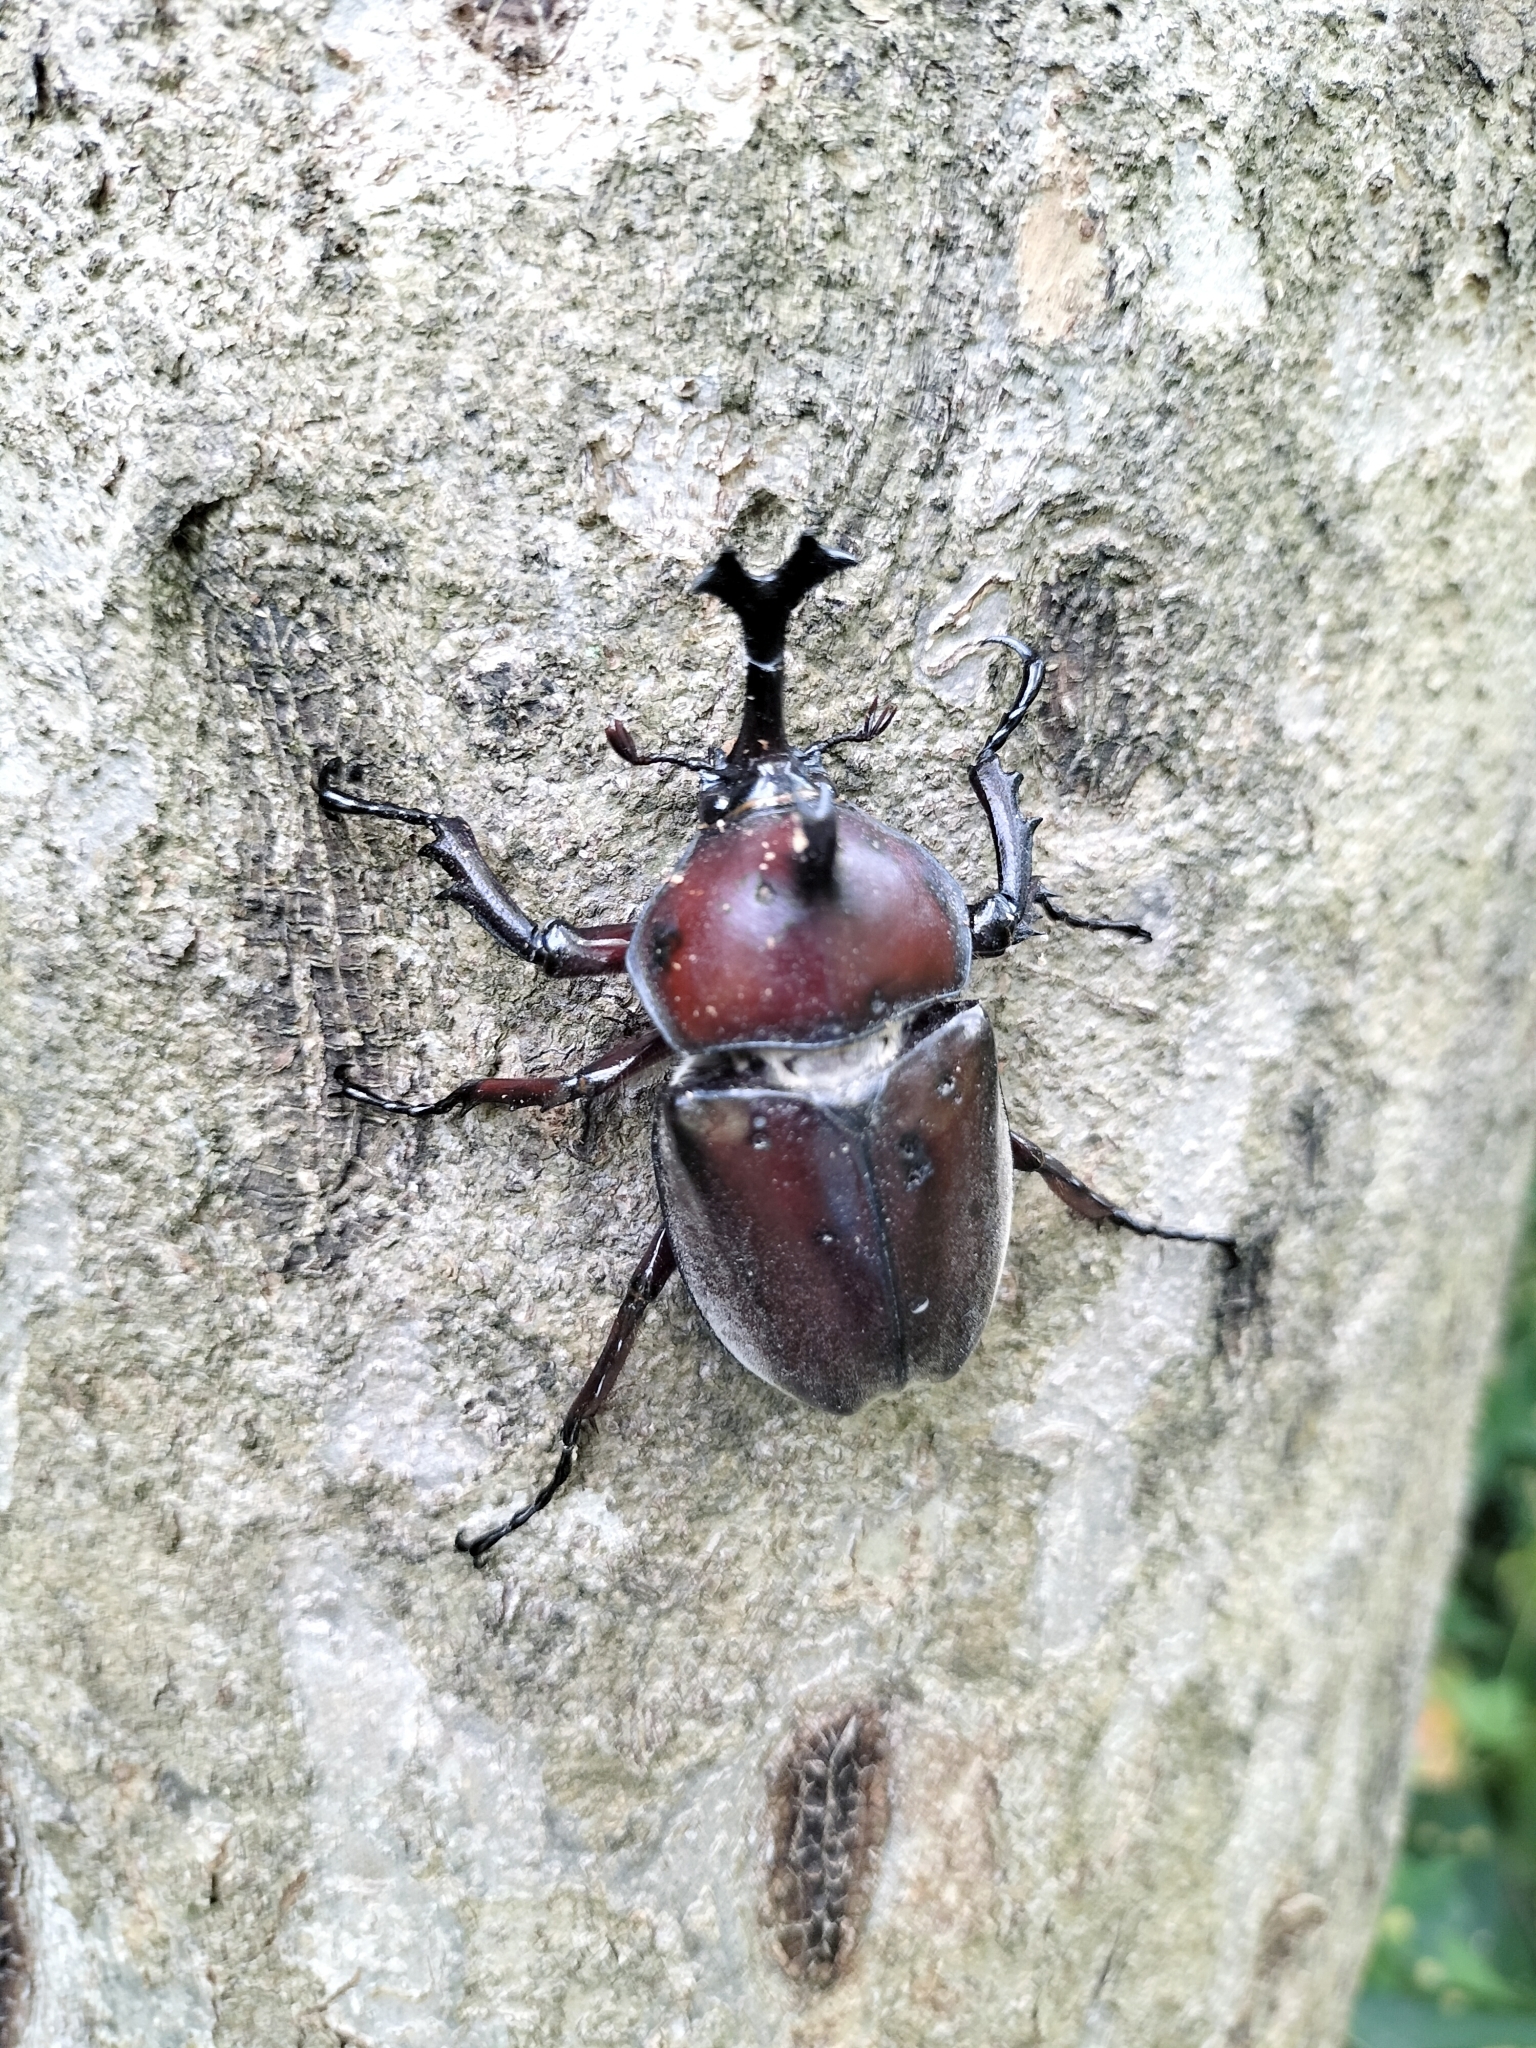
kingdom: Animalia
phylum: Arthropoda
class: Insecta
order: Coleoptera
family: Scarabaeidae
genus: Trypoxylus
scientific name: Trypoxylus dichotomus
